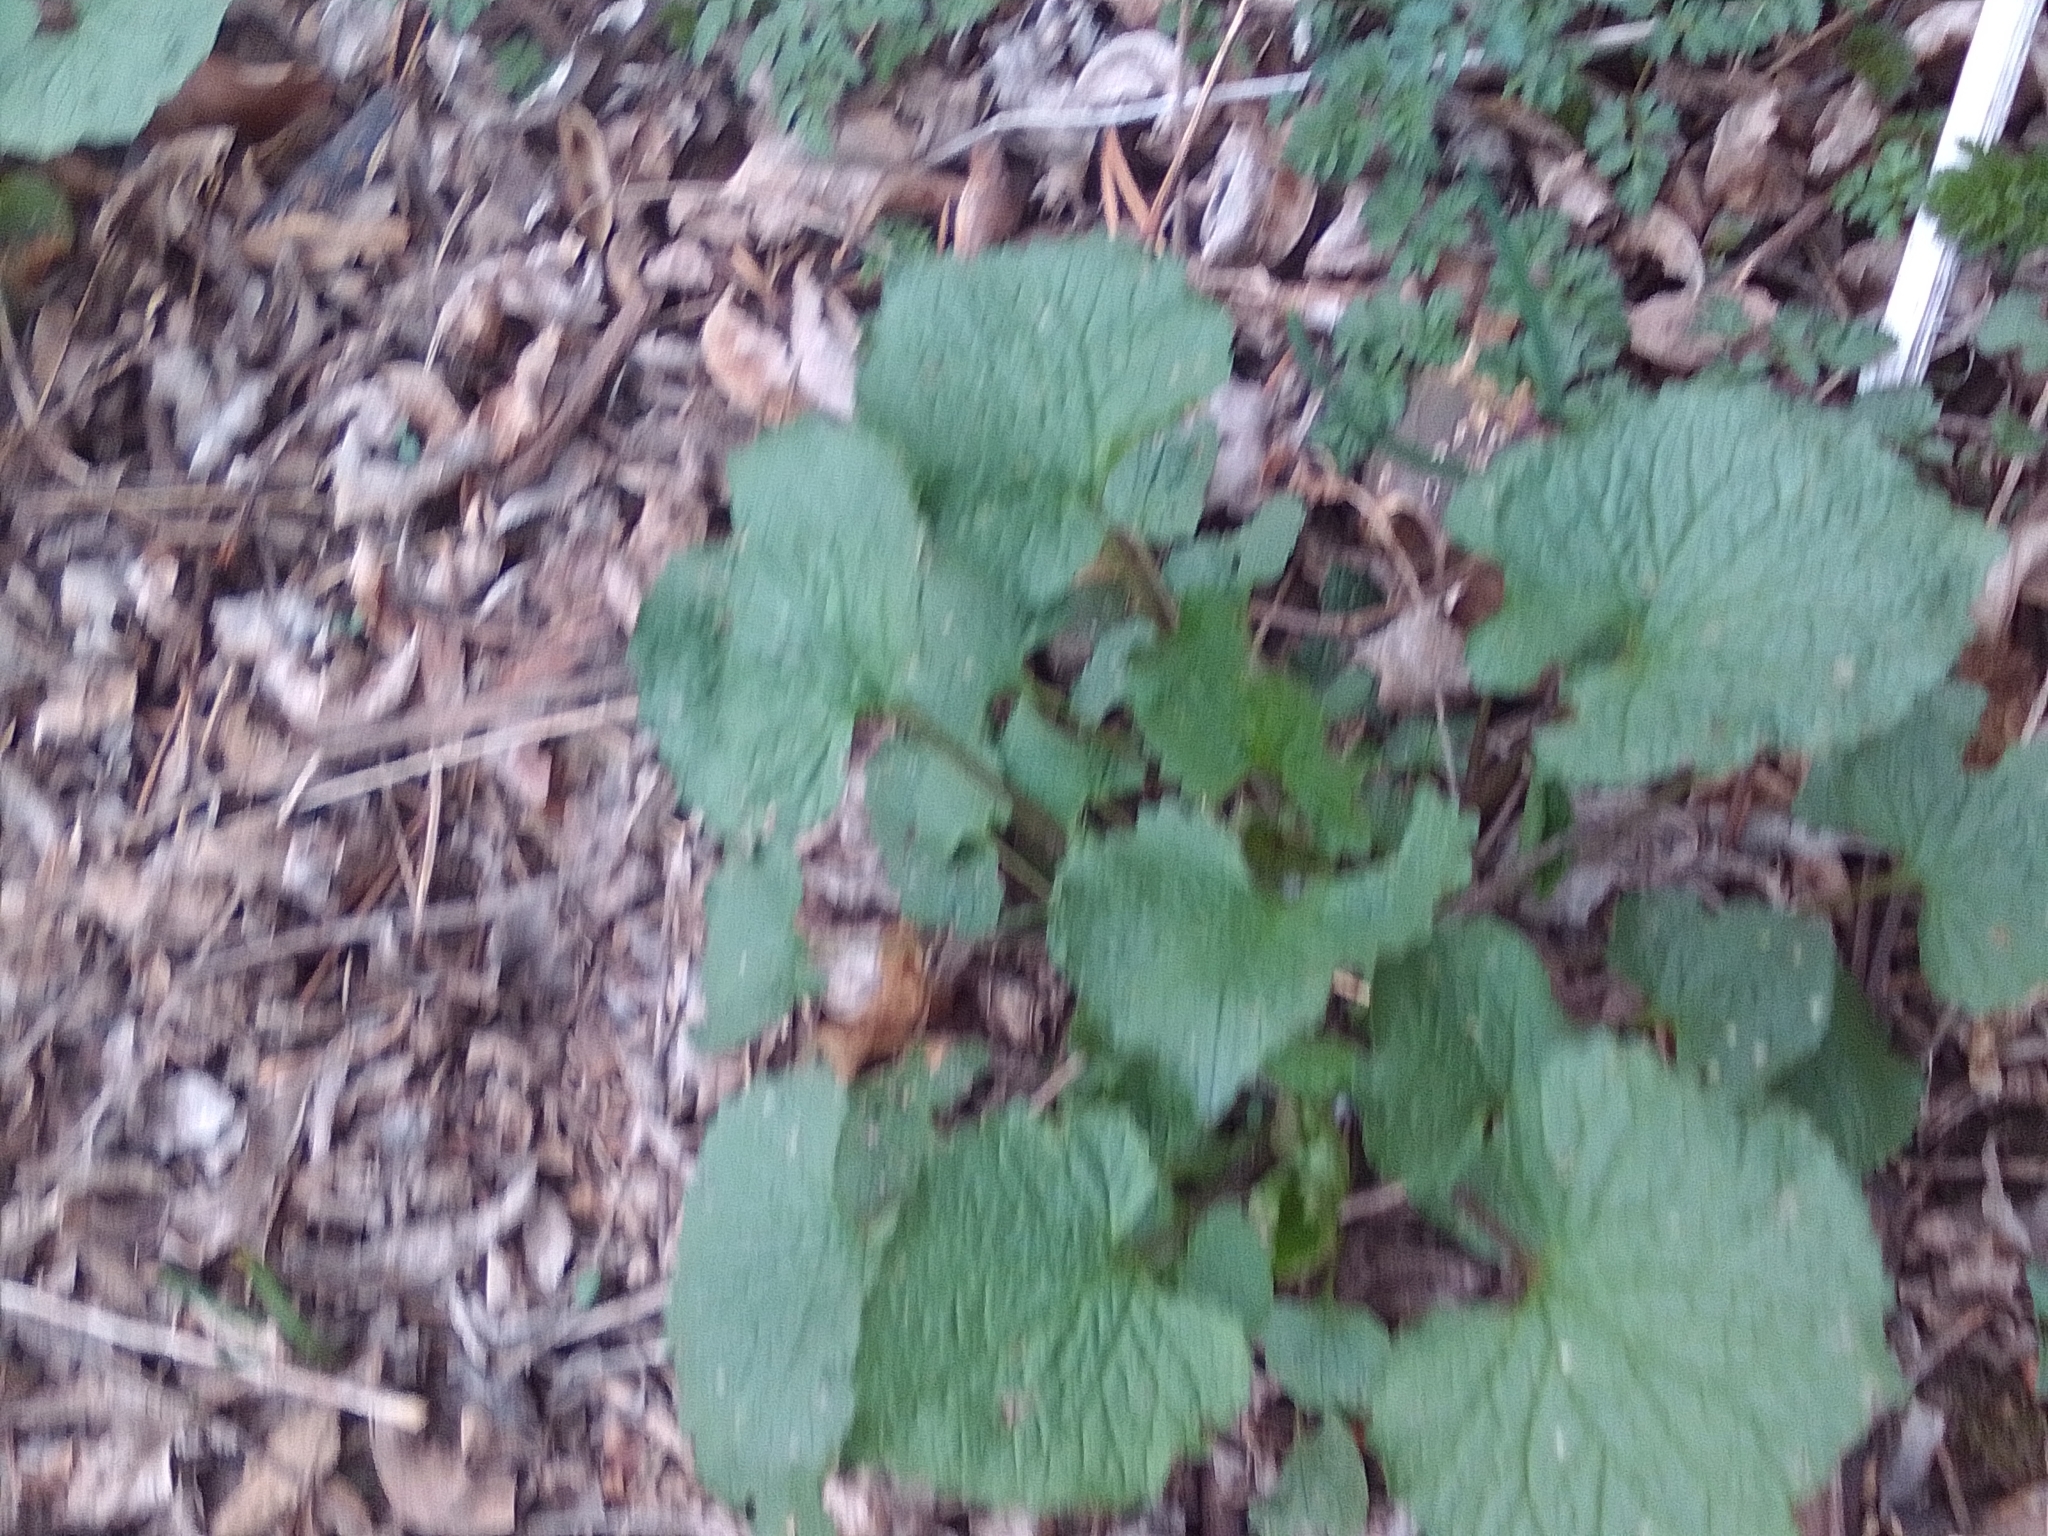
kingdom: Plantae
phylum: Tracheophyta
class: Magnoliopsida
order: Brassicales
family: Brassicaceae
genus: Alliaria
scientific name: Alliaria petiolata
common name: Garlic mustard
